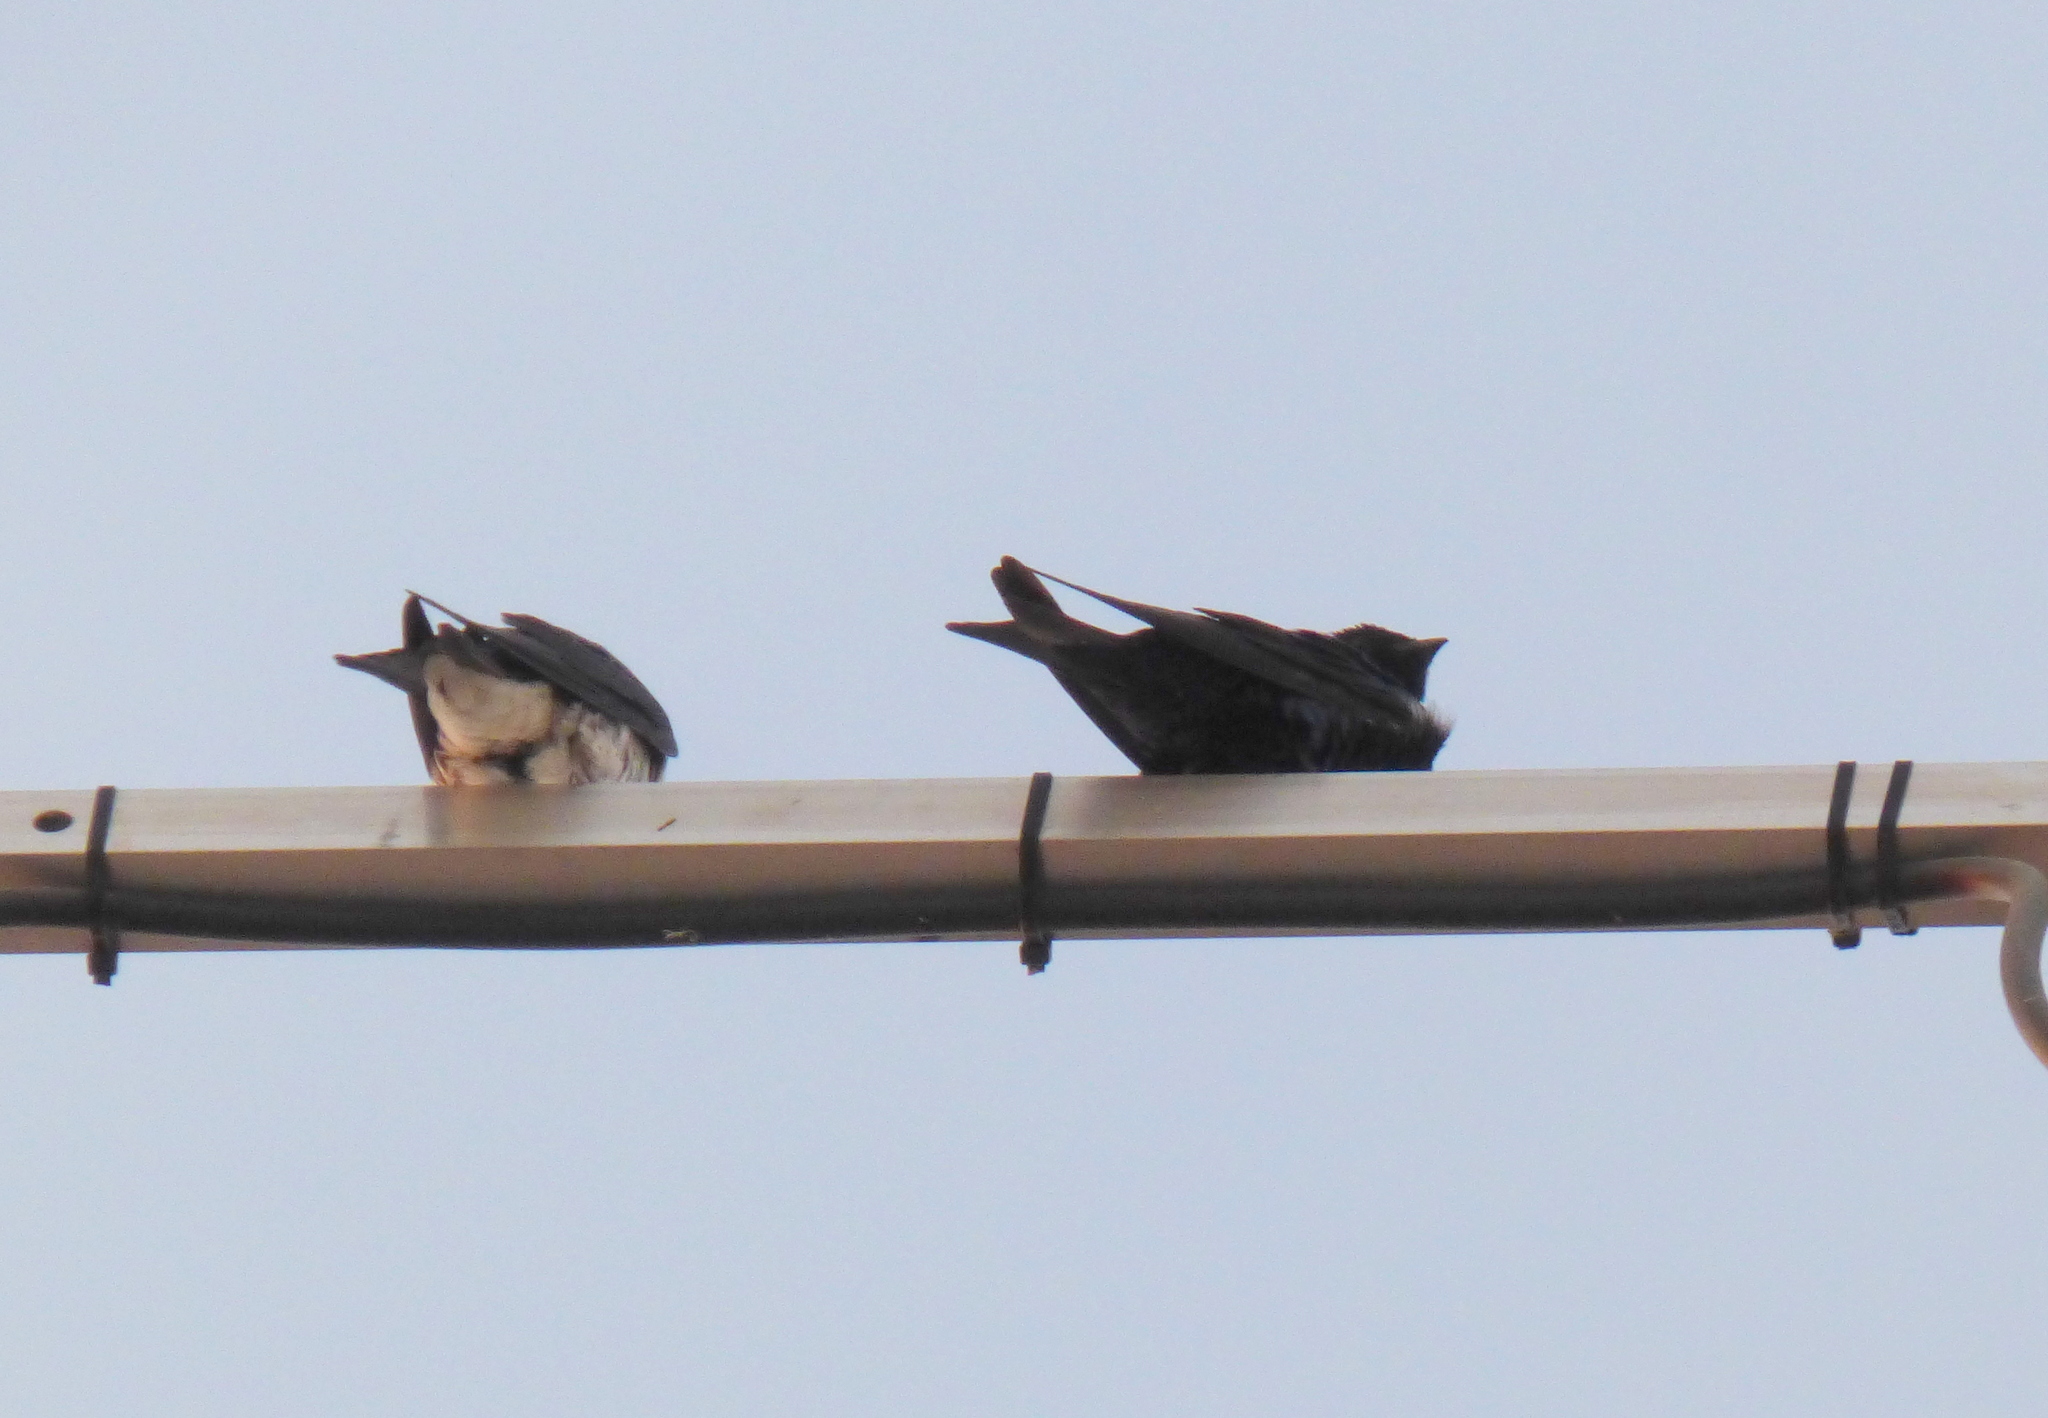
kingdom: Animalia
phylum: Chordata
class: Aves
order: Passeriformes
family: Hirundinidae
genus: Progne
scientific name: Progne elegans
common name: Southern martin
